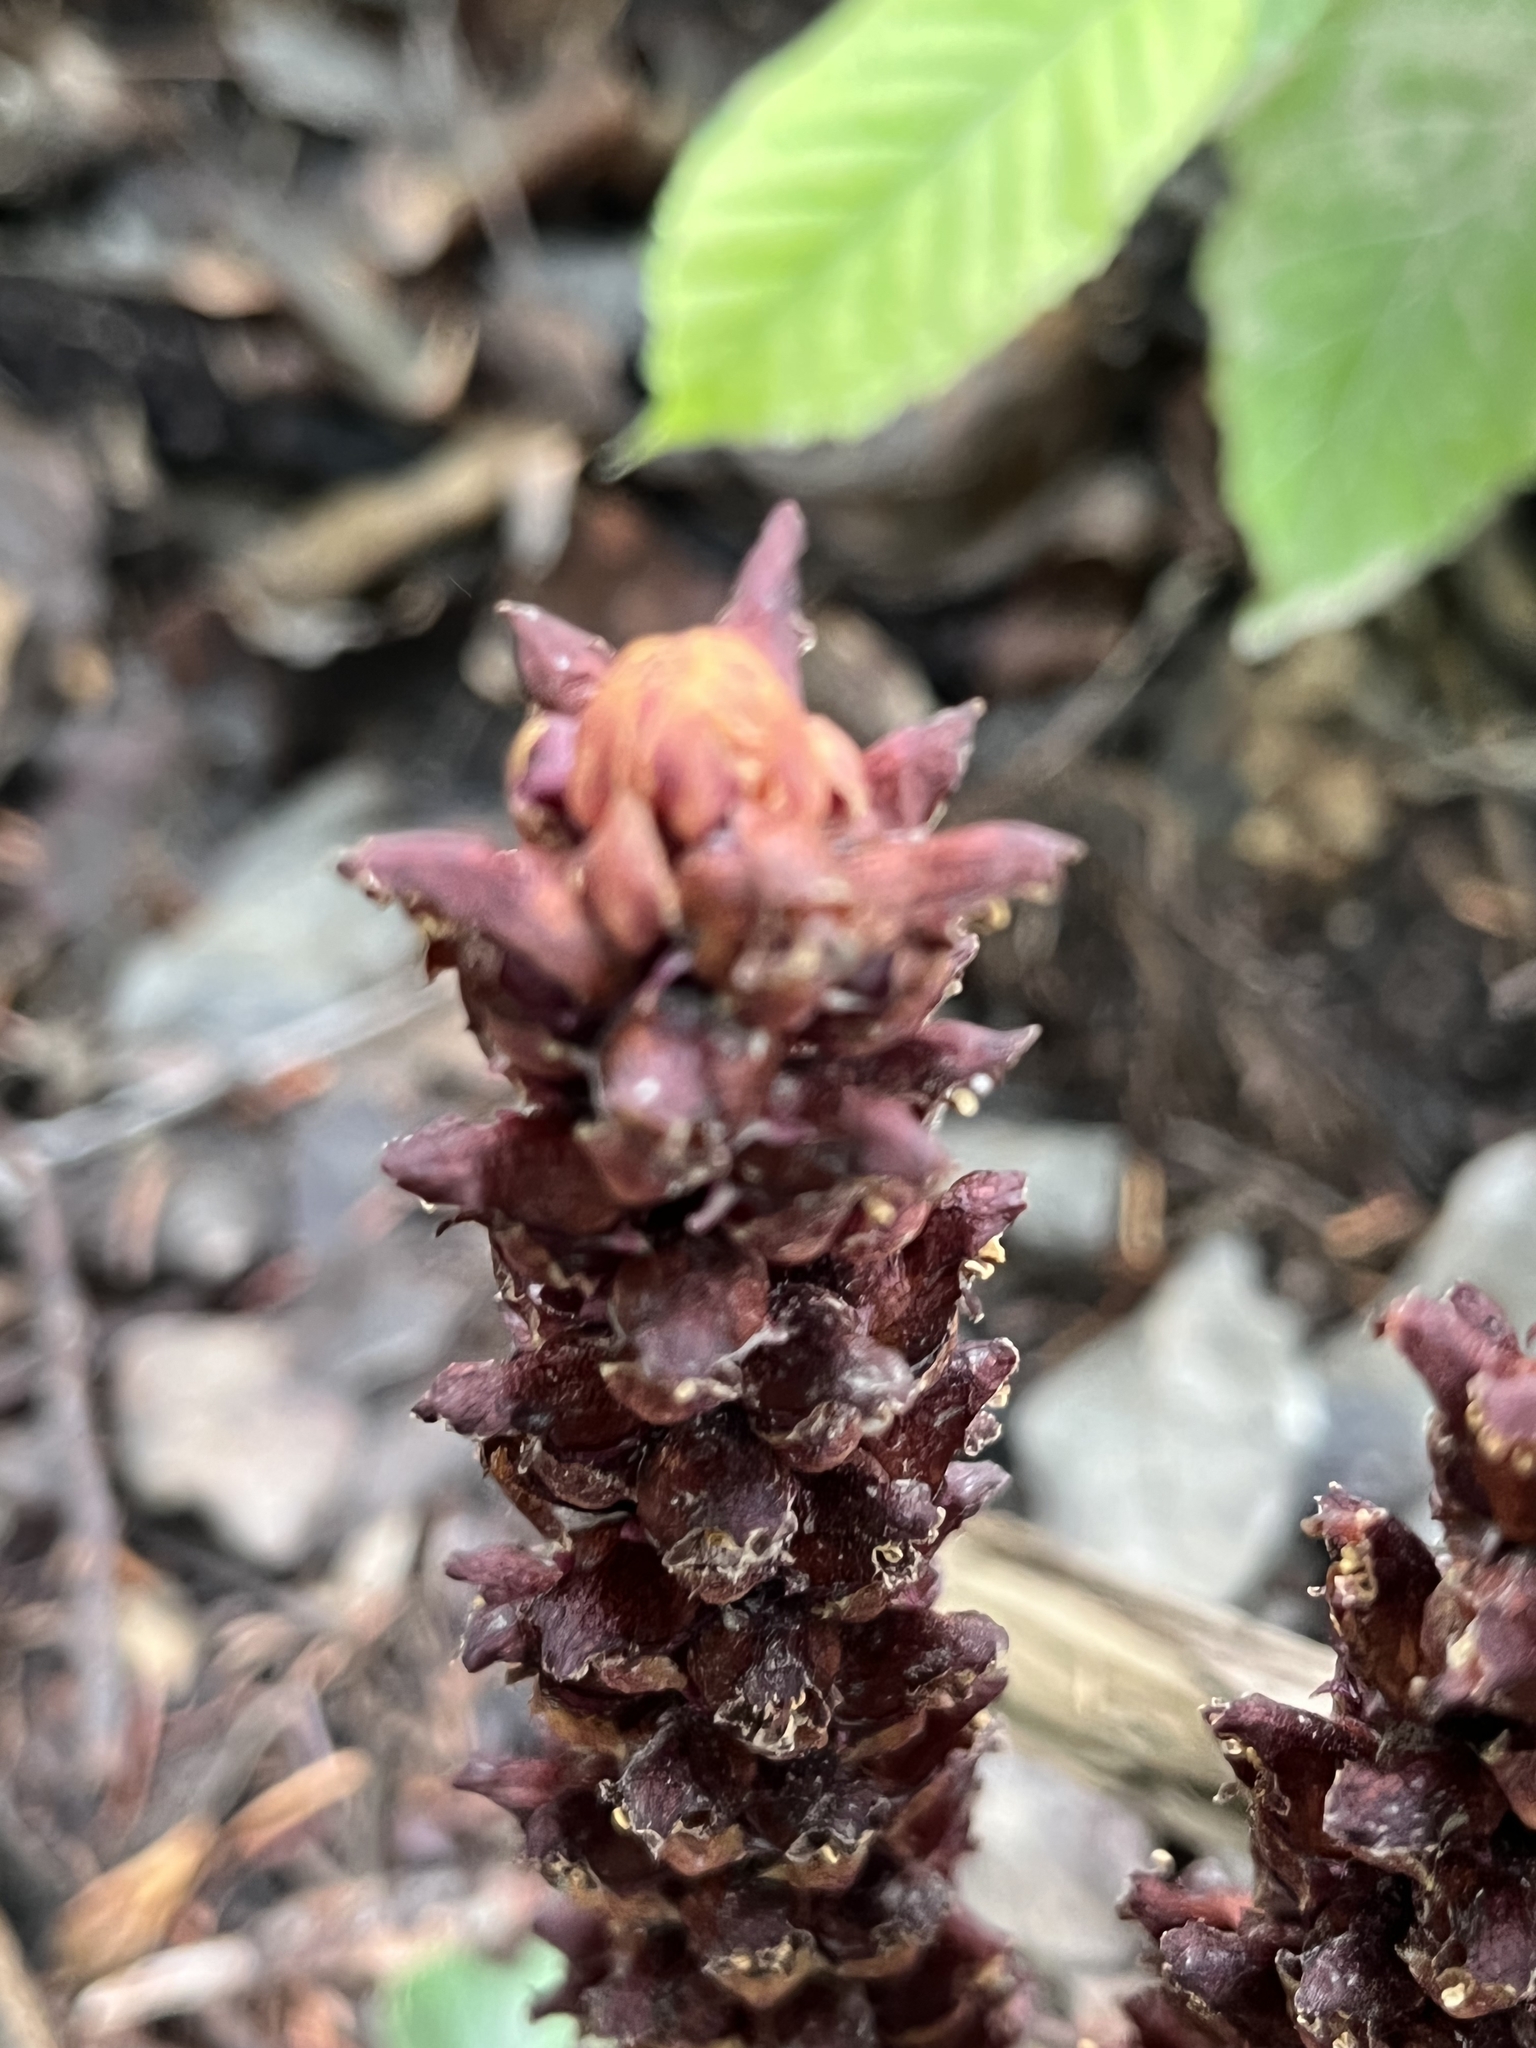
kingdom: Plantae
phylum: Tracheophyta
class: Magnoliopsida
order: Lamiales
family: Orobanchaceae
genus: Boschniakia
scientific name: Boschniakia rossica
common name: Poque
